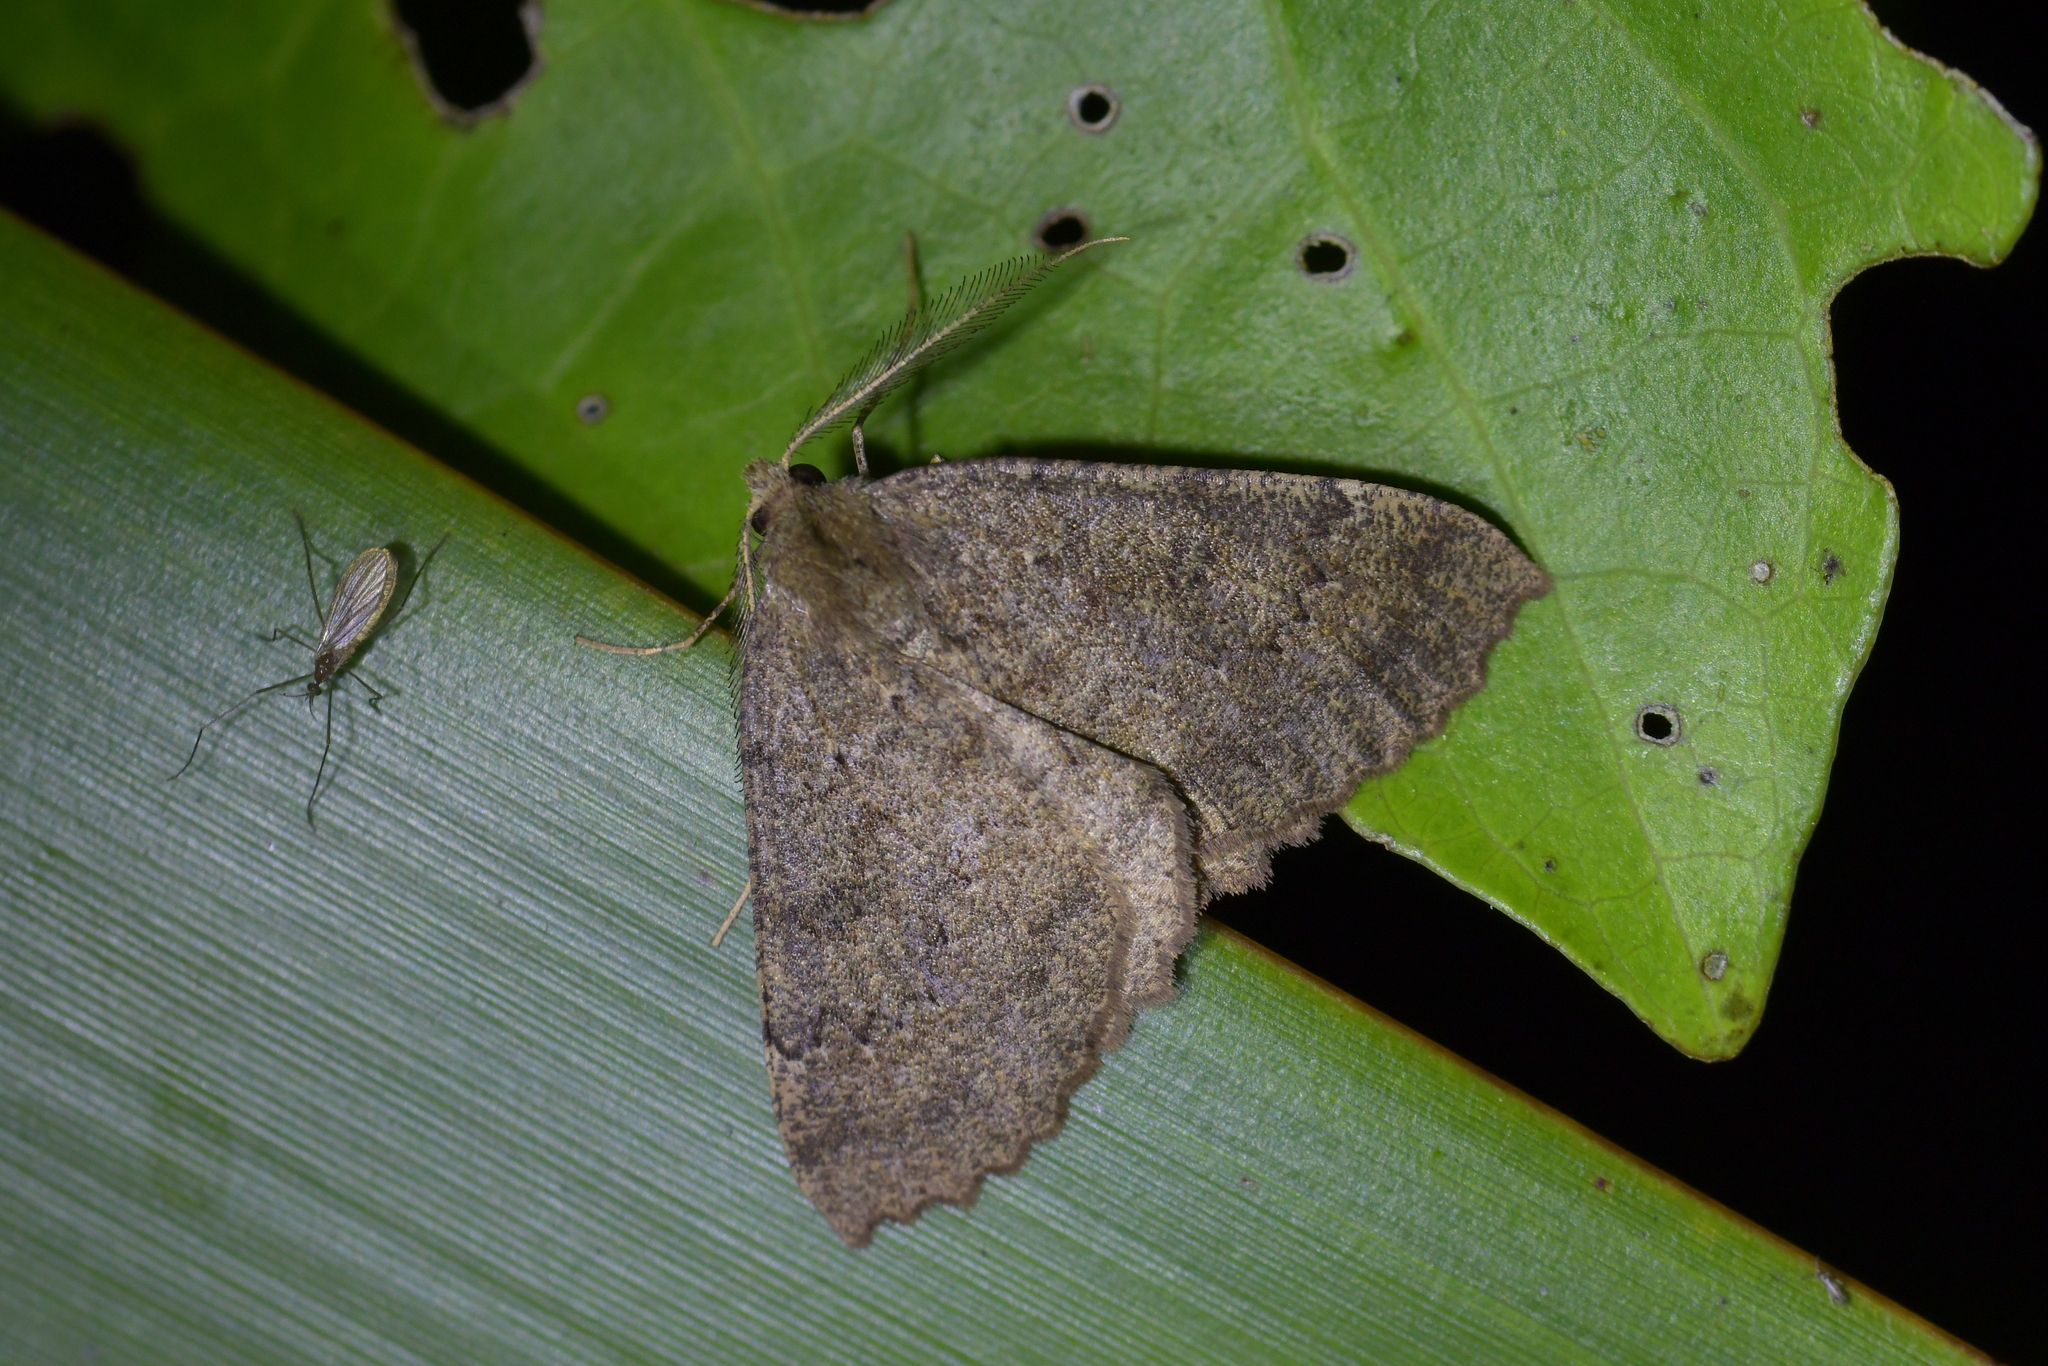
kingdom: Animalia
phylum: Arthropoda
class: Insecta
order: Lepidoptera
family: Geometridae
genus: Cleora
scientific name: Cleora scriptaria
